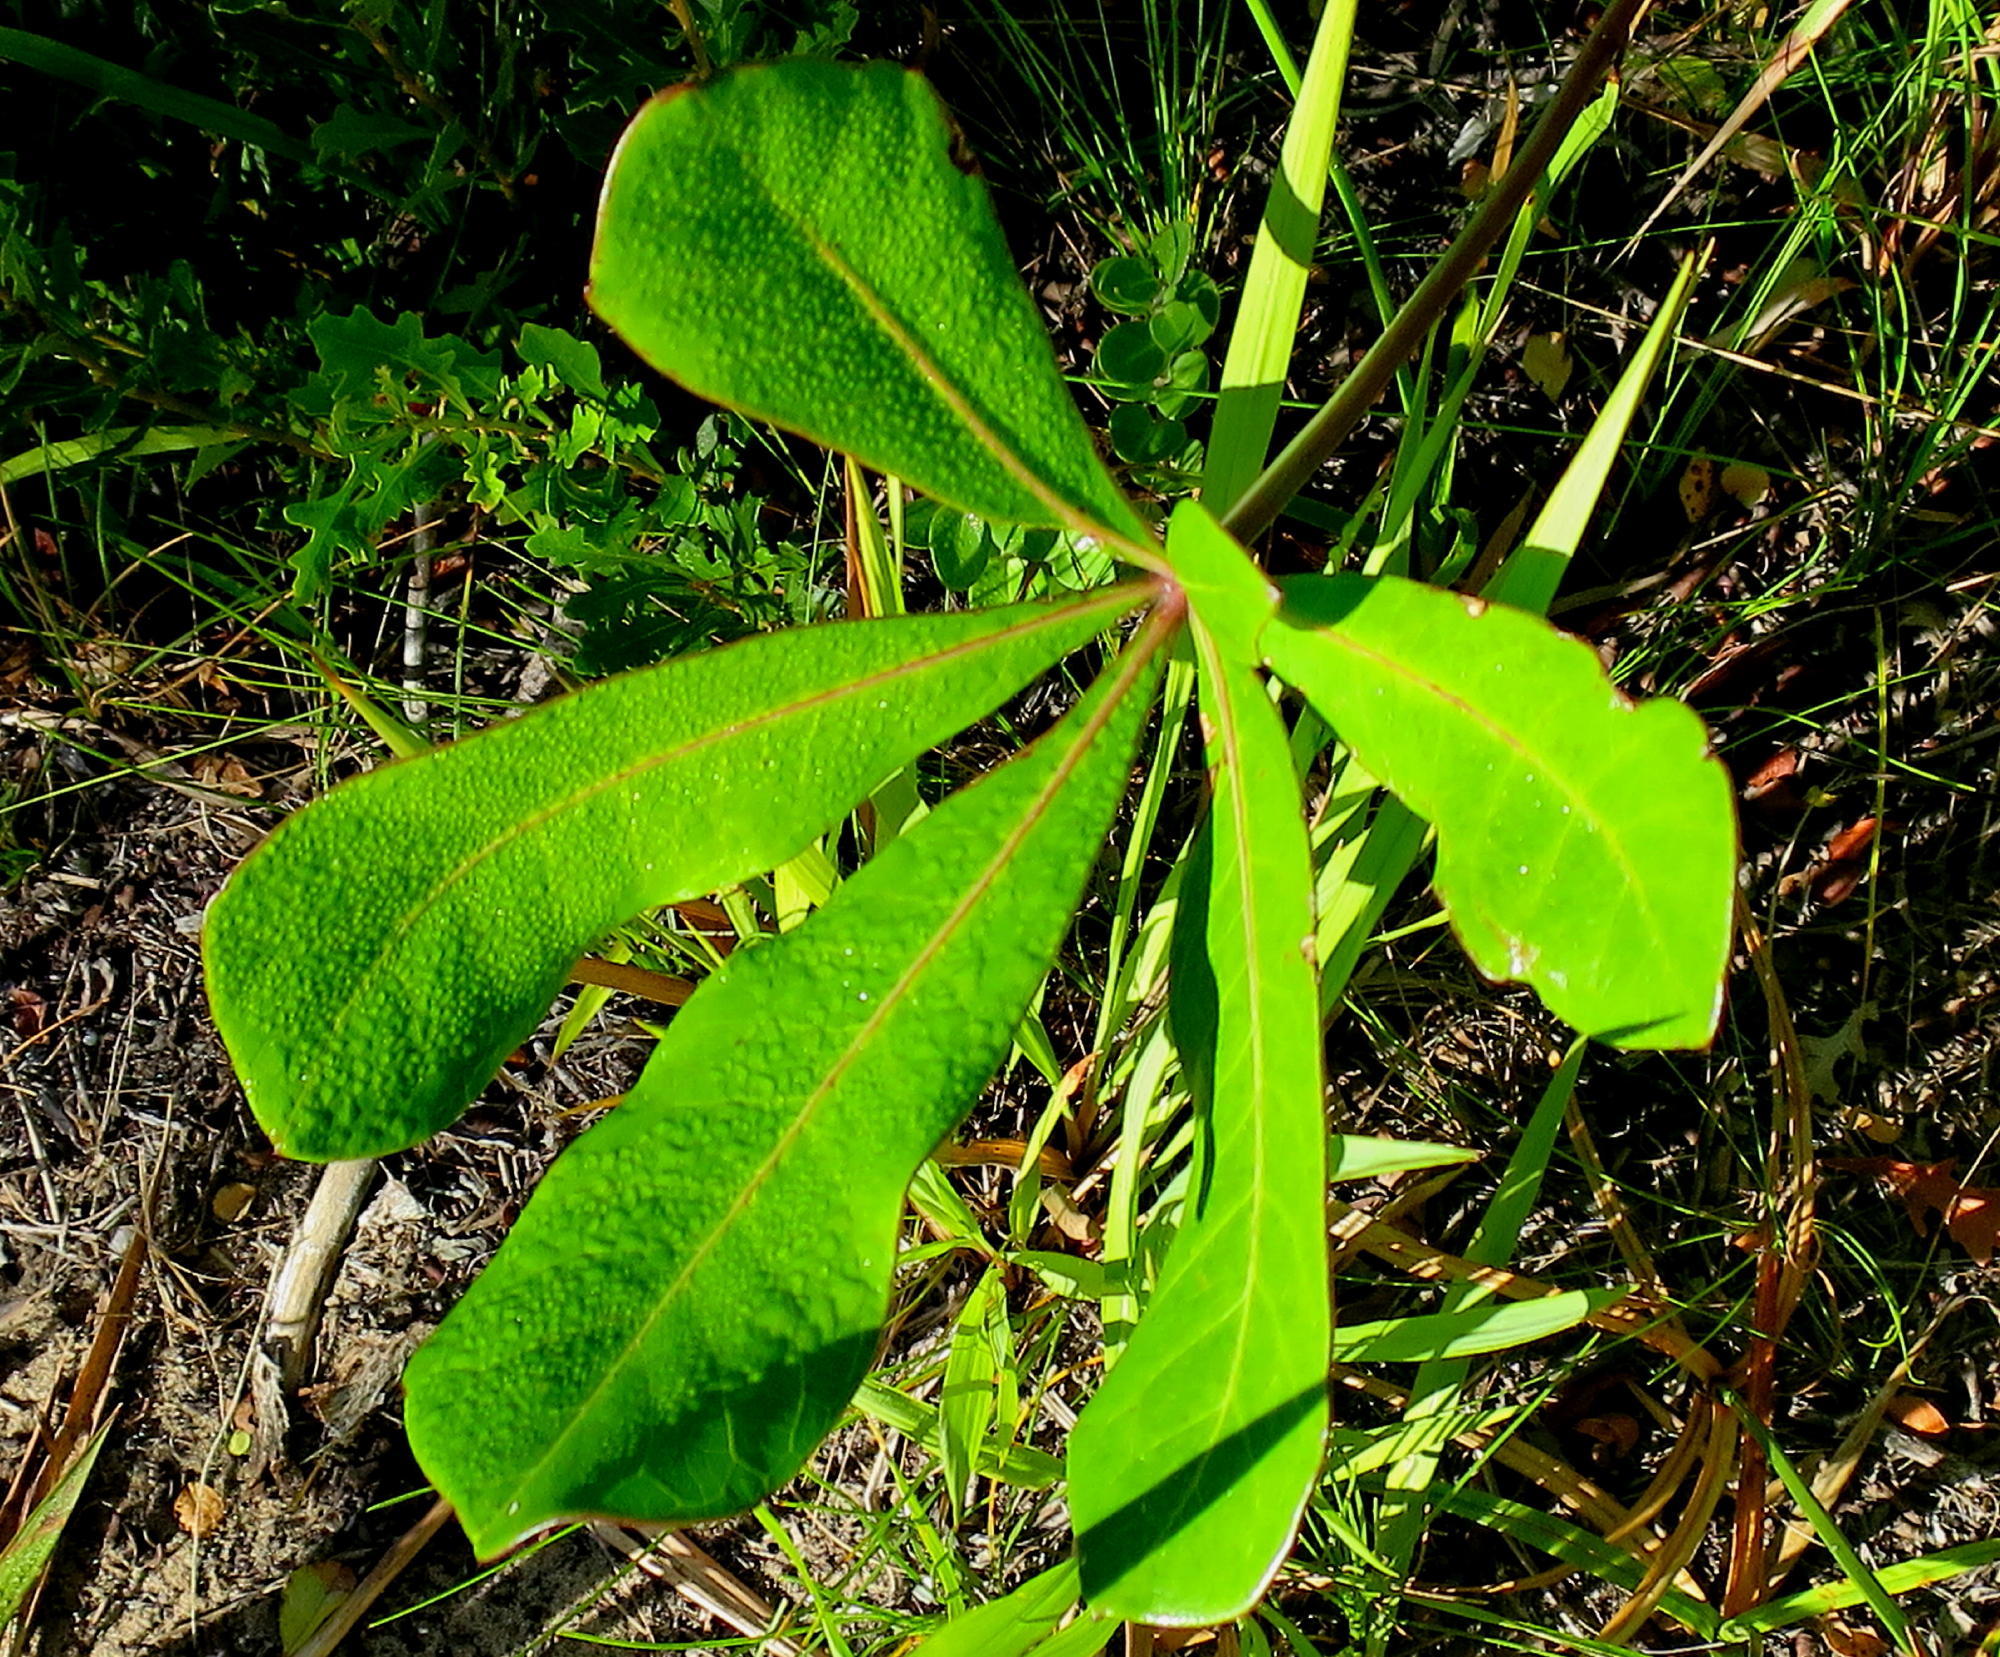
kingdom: Plantae
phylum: Tracheophyta
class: Magnoliopsida
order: Apiales
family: Araliaceae
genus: Cussonia
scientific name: Cussonia thyrsiflora
